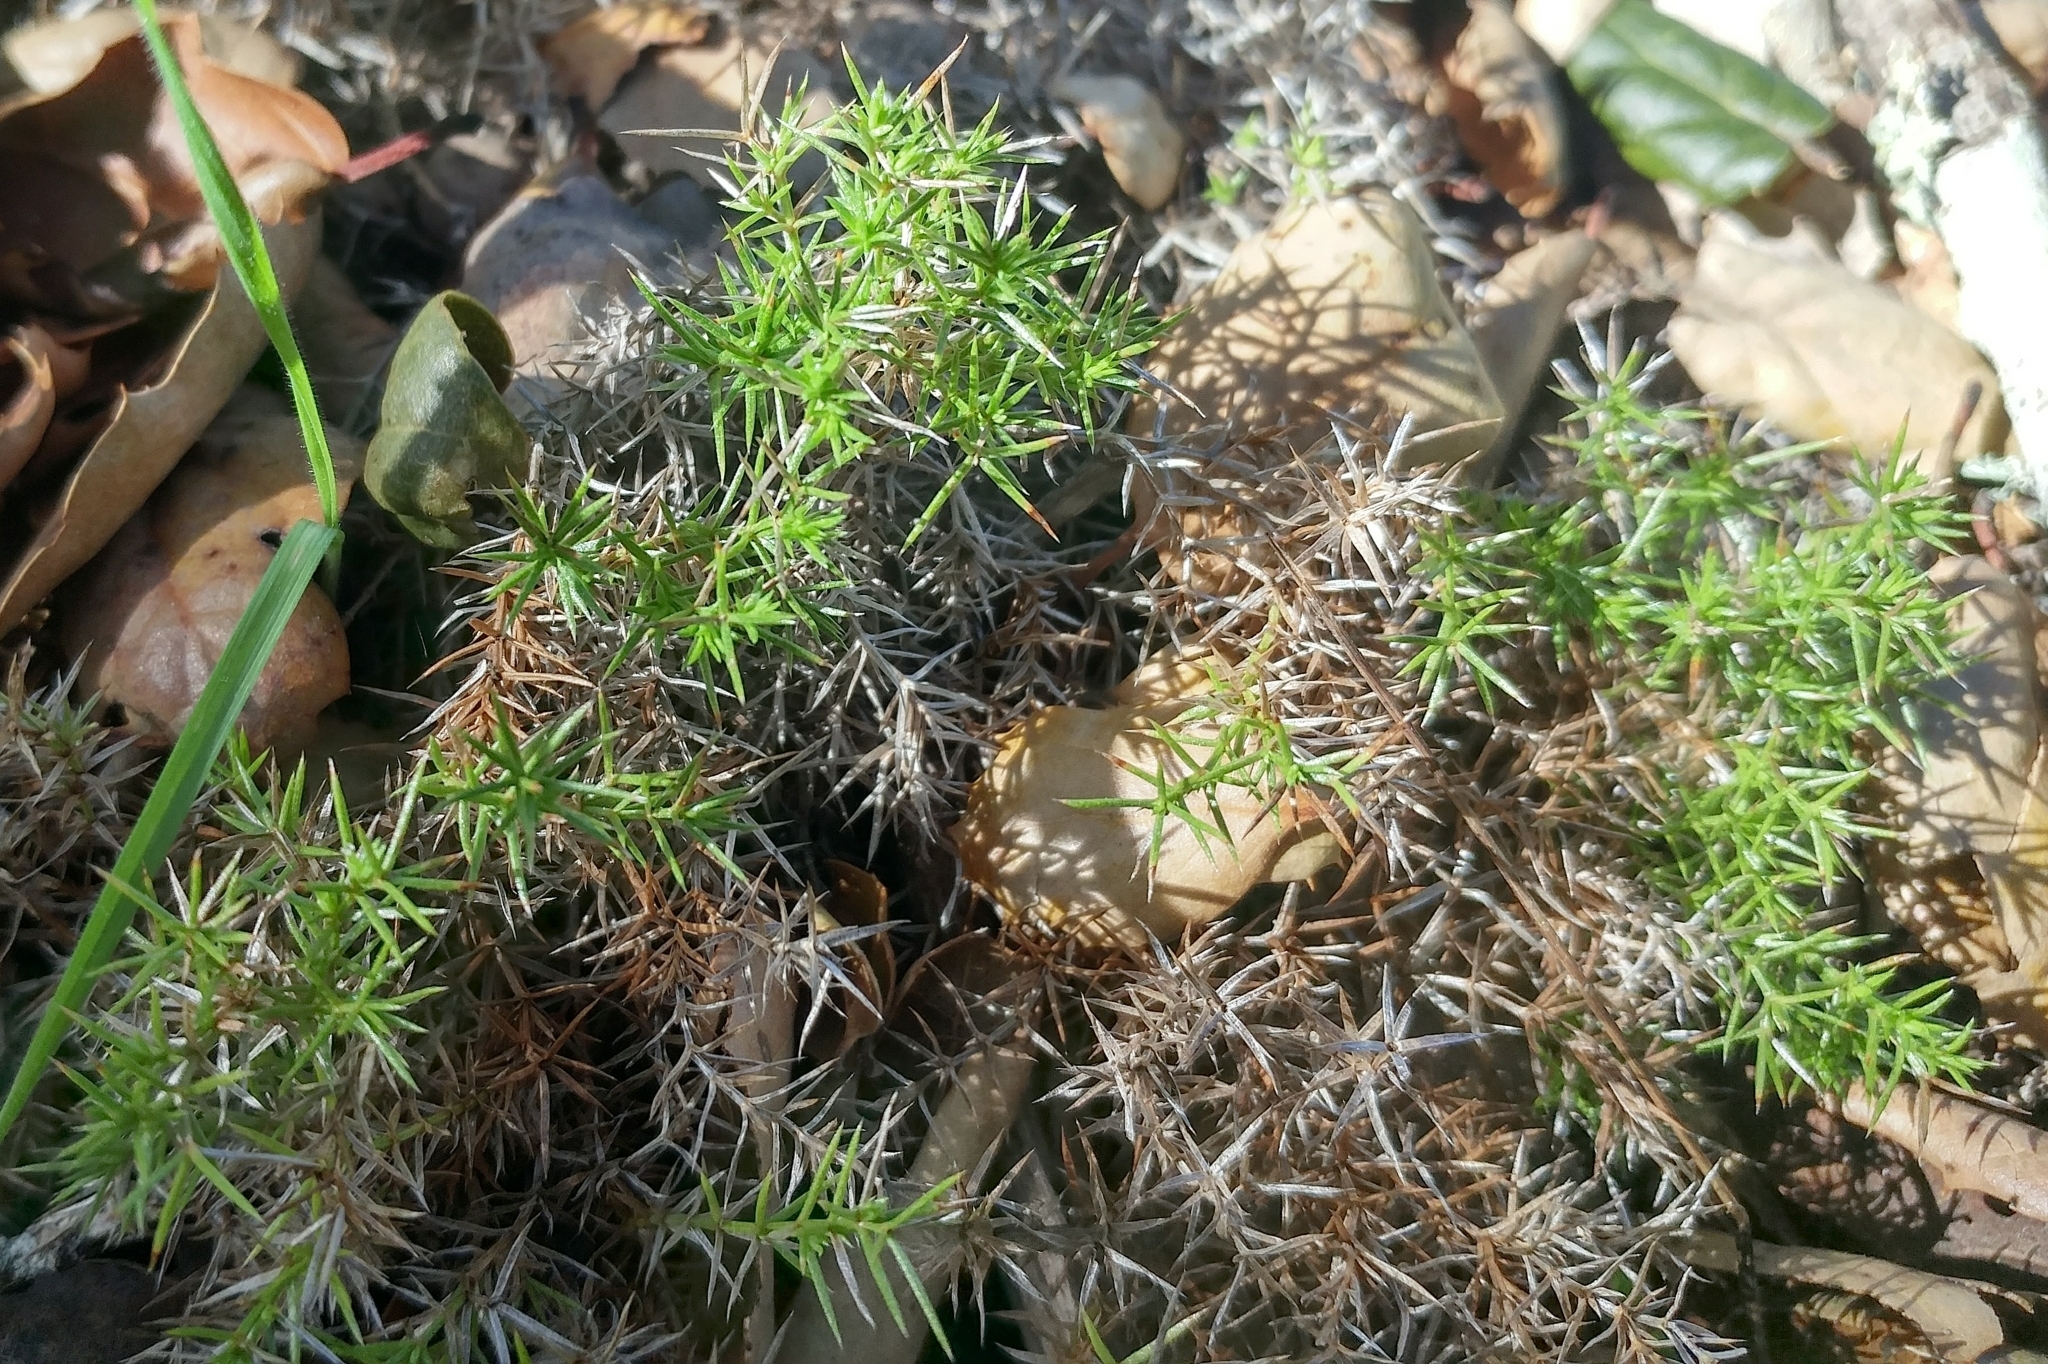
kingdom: Plantae
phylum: Tracheophyta
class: Magnoliopsida
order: Gentianales
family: Rubiaceae
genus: Galium
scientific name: Galium andrewsii
